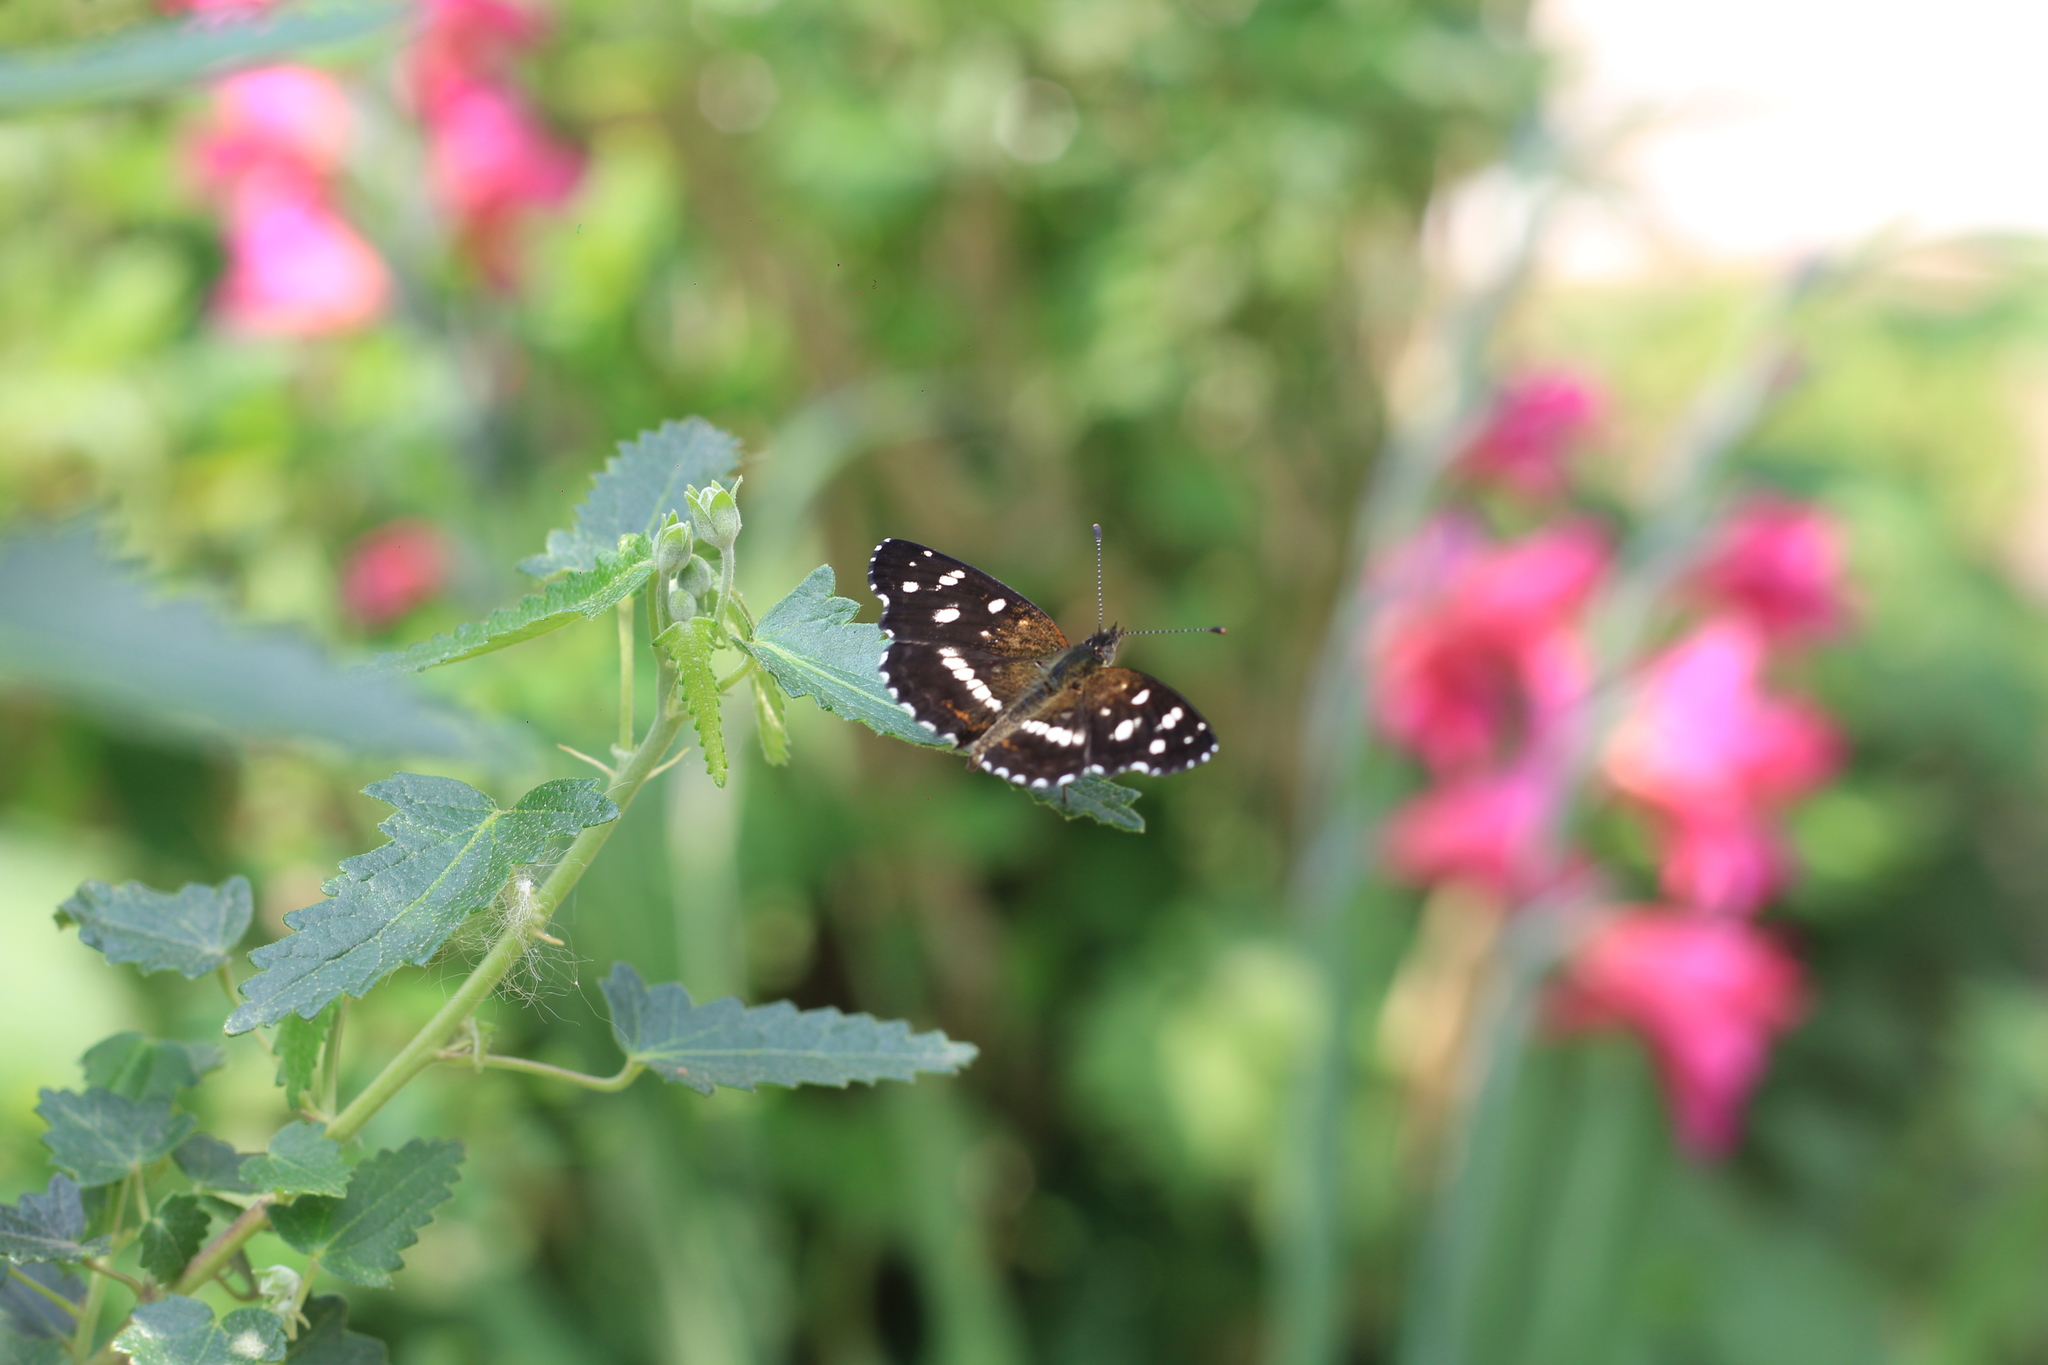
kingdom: Animalia
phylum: Arthropoda
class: Insecta
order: Lepidoptera
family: Nymphalidae
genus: Ortilia
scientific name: Ortilia ithra
